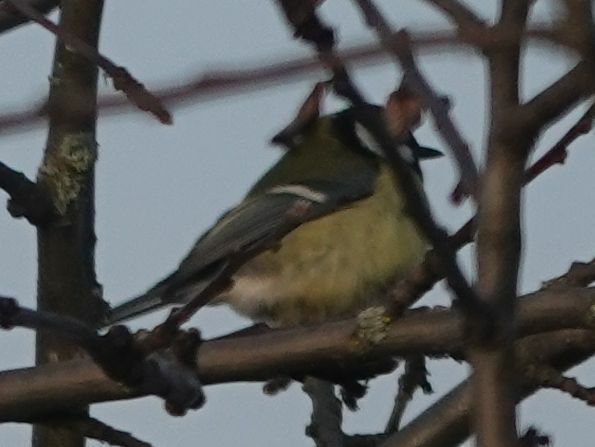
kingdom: Animalia
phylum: Chordata
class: Aves
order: Passeriformes
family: Paridae
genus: Parus
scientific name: Parus major
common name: Great tit
